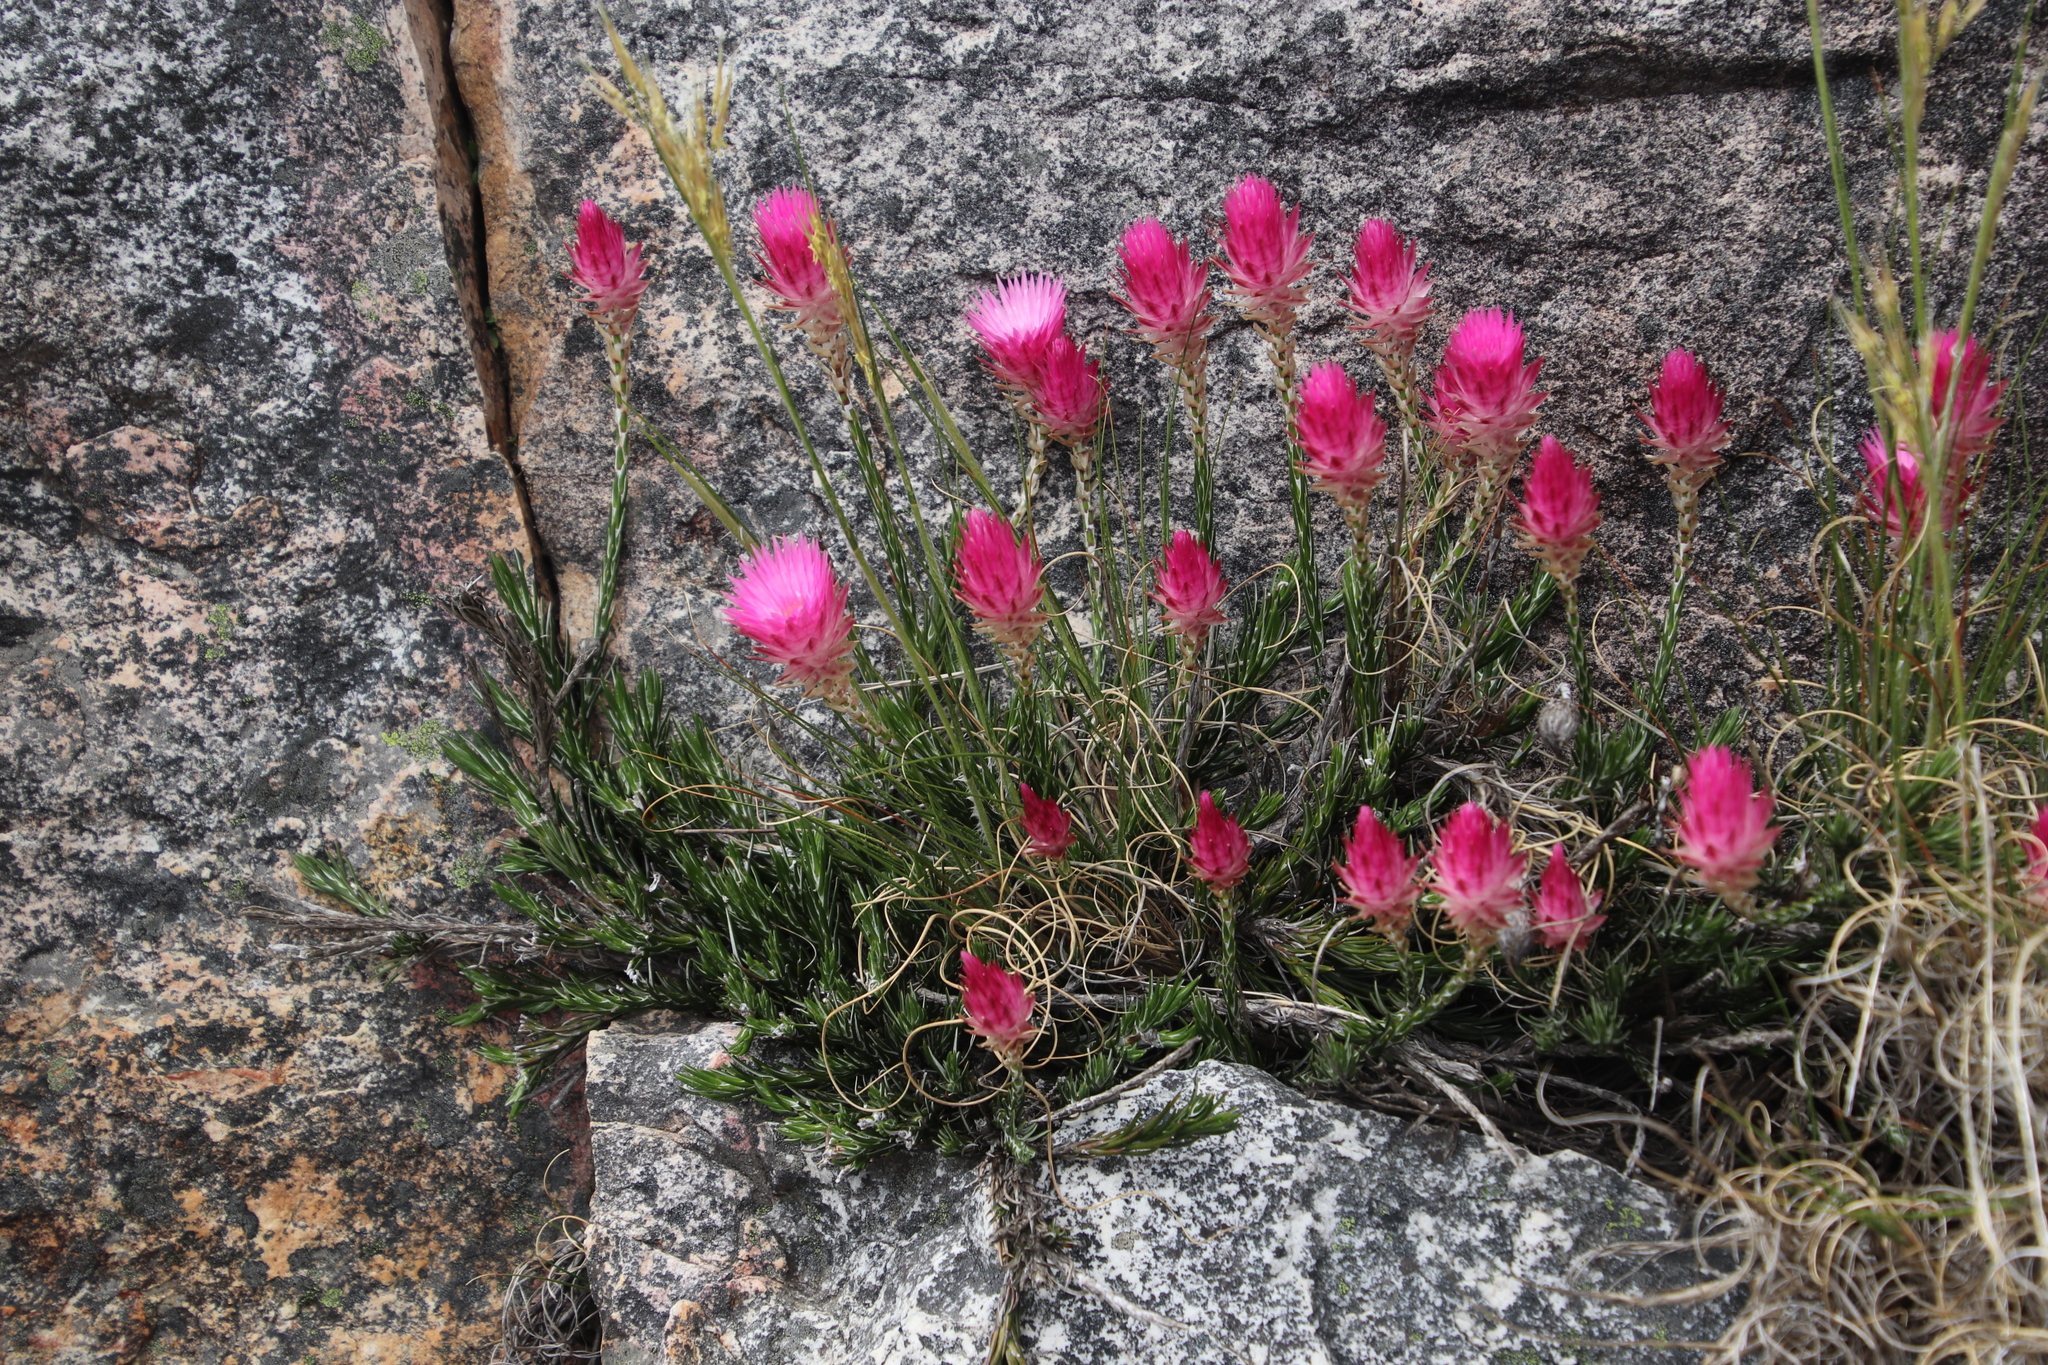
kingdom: Plantae
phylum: Tracheophyta
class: Magnoliopsida
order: Asterales
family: Asteraceae
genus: Edmondia
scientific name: Edmondia pinifolia
